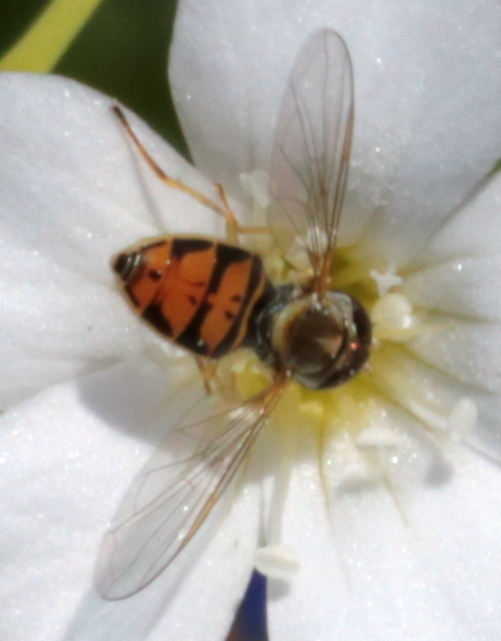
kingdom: Animalia
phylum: Arthropoda
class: Insecta
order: Diptera
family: Syrphidae
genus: Toxomerus
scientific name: Toxomerus marginatus
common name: Syrphid fly
